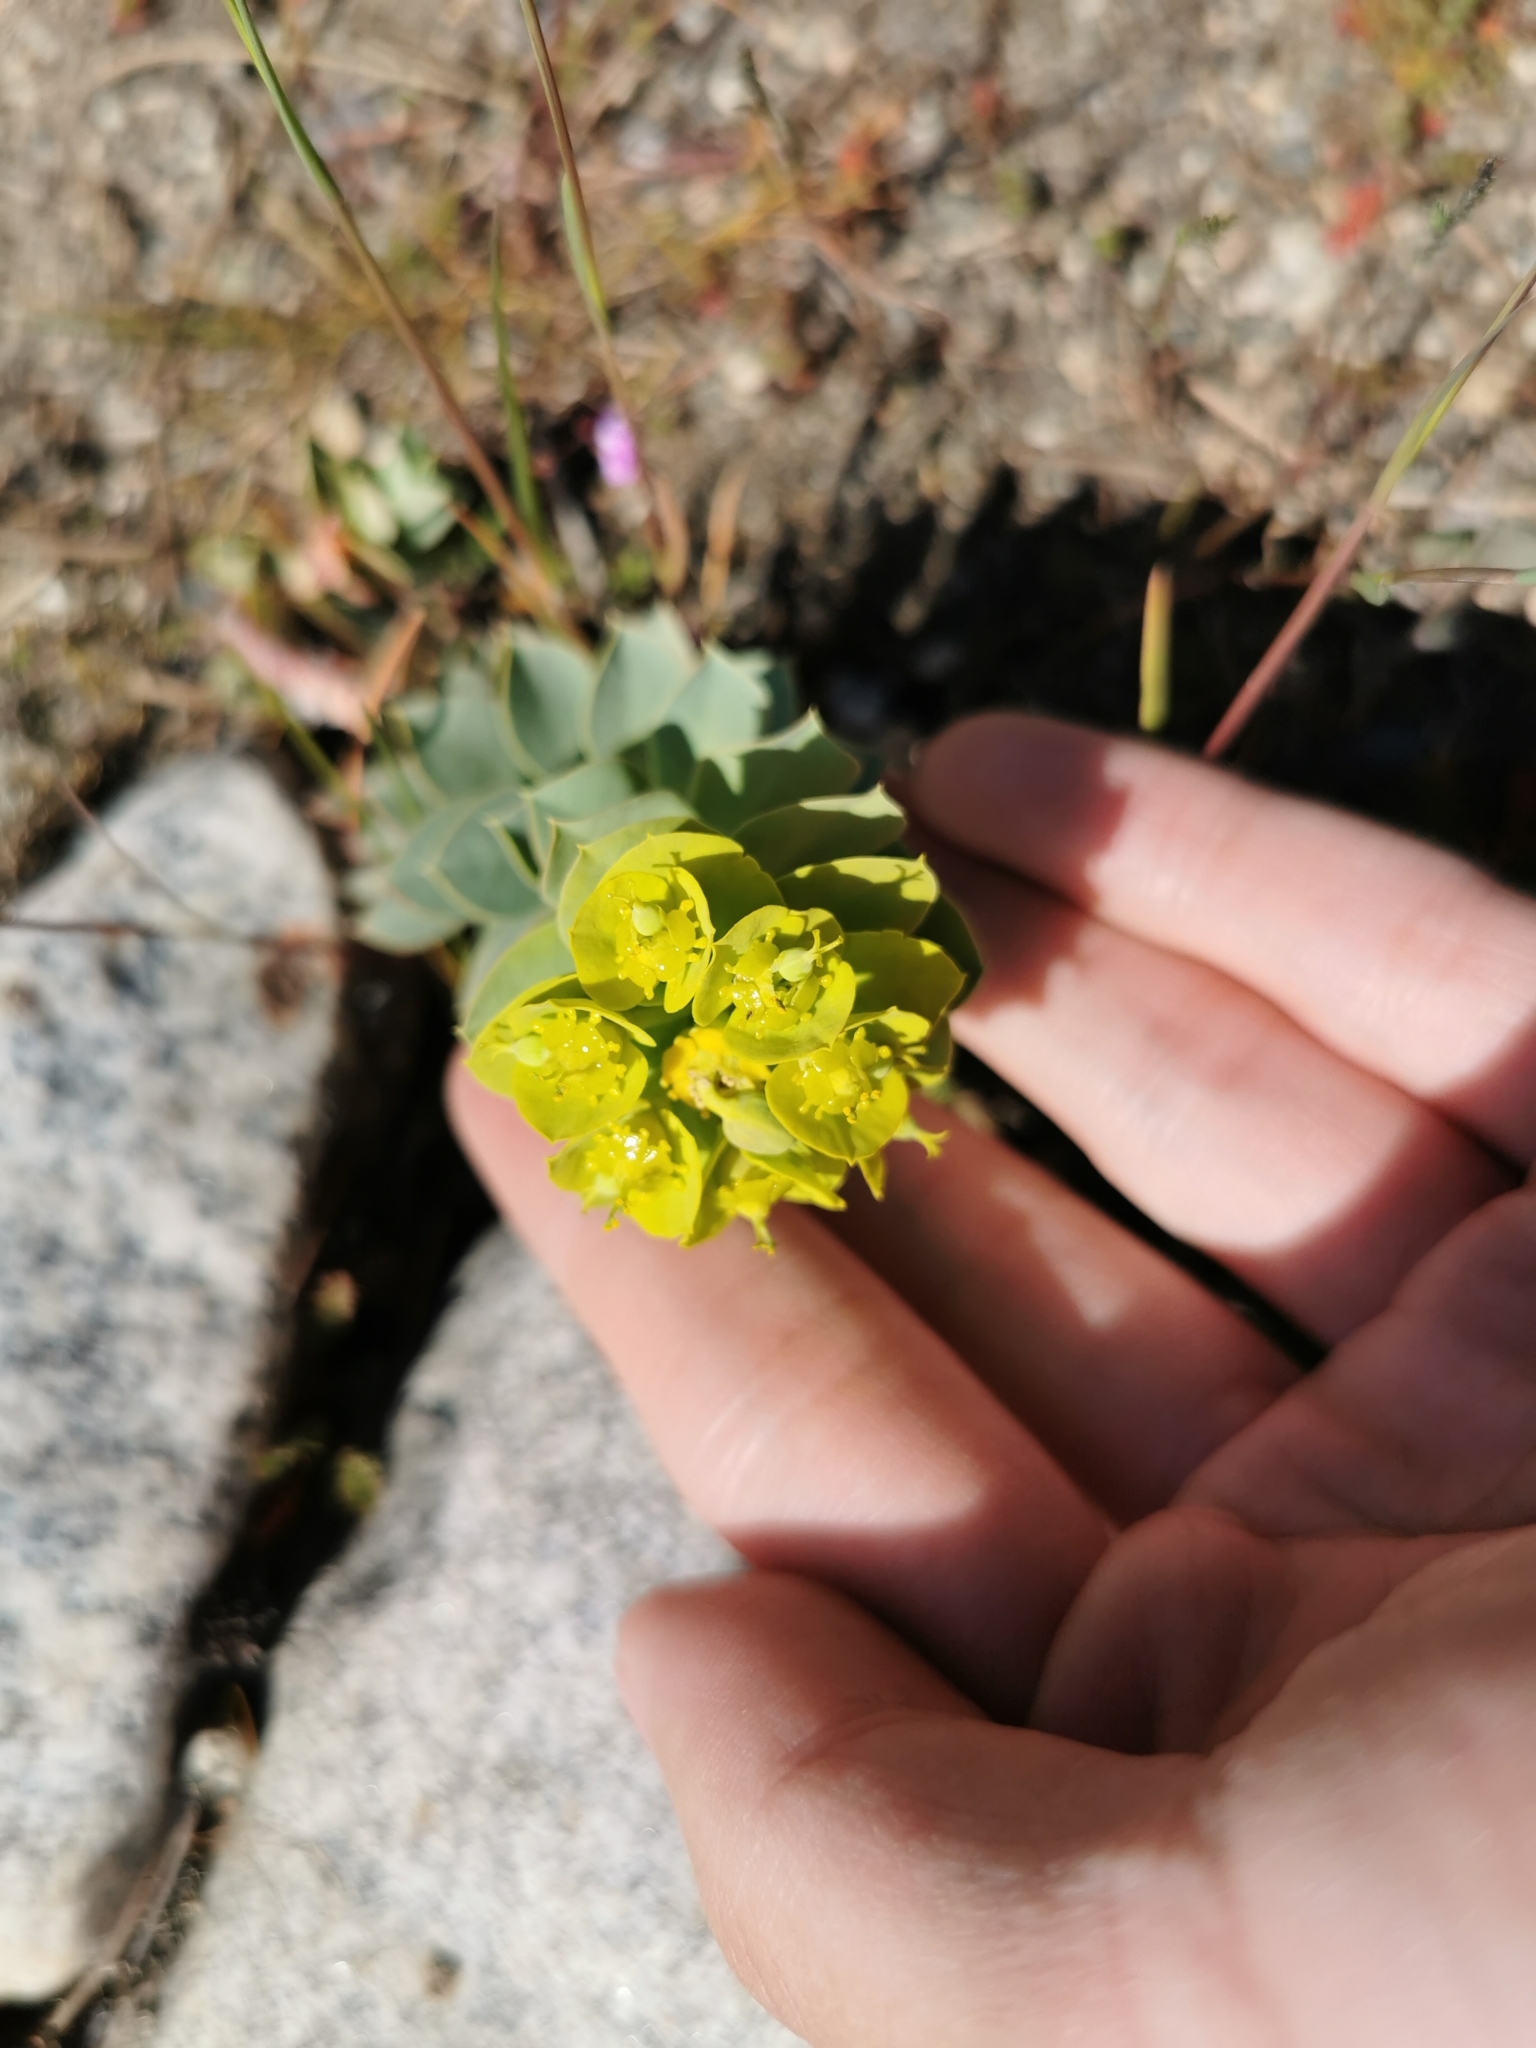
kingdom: Plantae
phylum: Tracheophyta
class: Magnoliopsida
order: Malpighiales
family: Euphorbiaceae
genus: Euphorbia
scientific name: Euphorbia myrsinites
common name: Myrtle spurge
